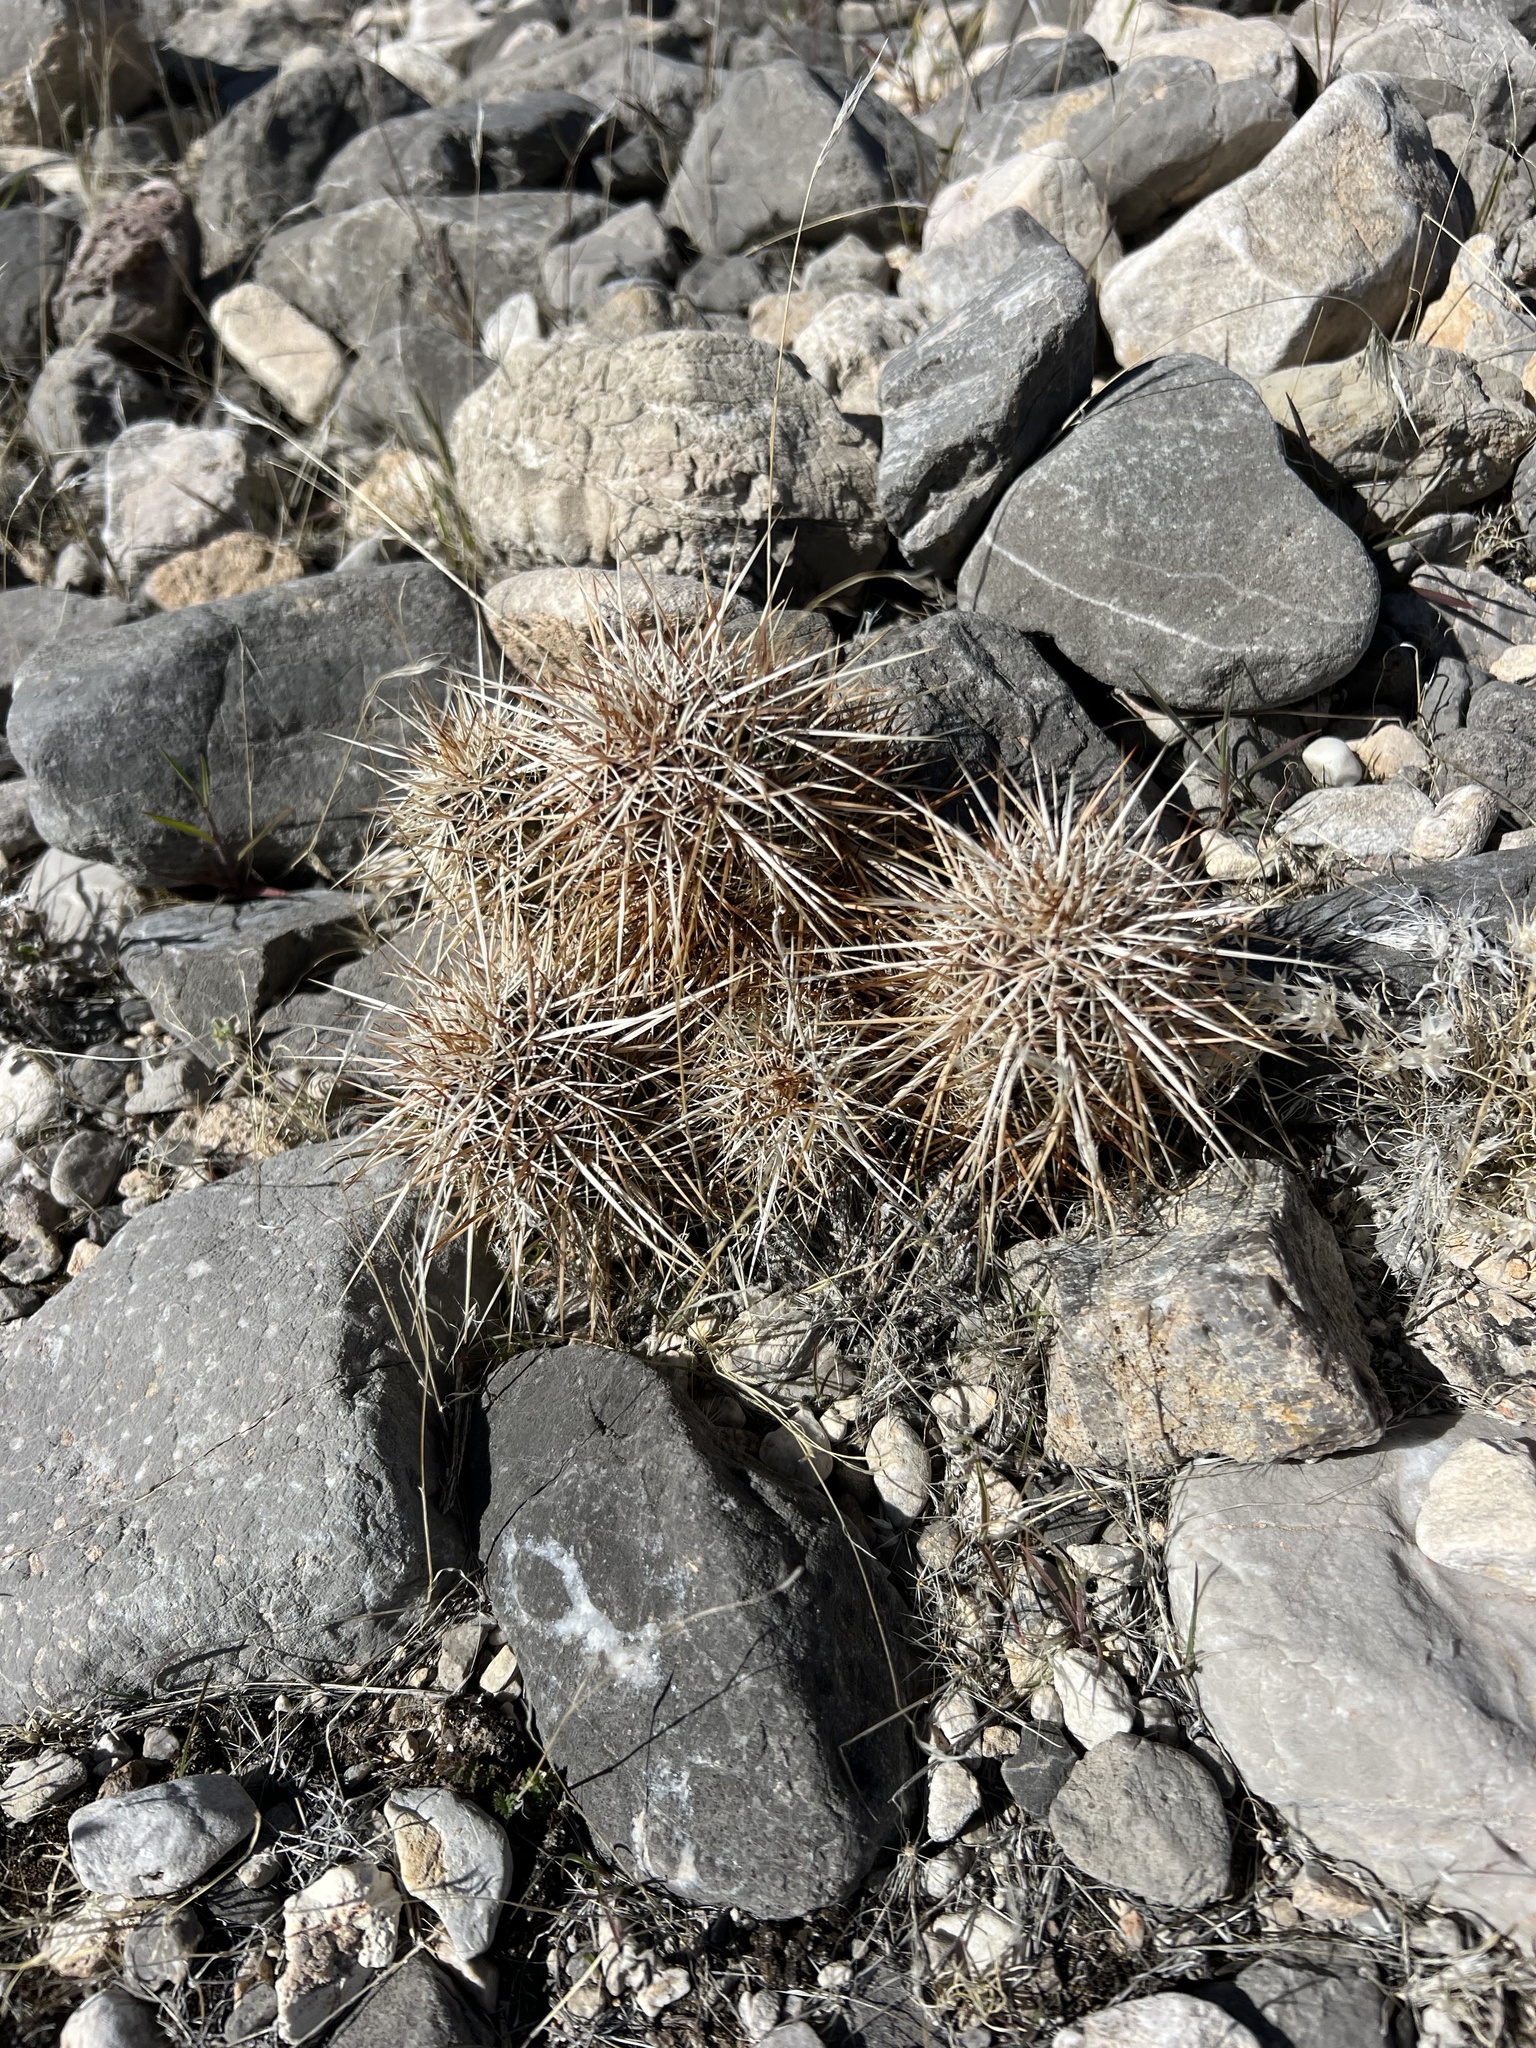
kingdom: Plantae
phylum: Tracheophyta
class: Magnoliopsida
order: Caryophyllales
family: Cactaceae
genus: Echinocereus
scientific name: Echinocereus engelmannii
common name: Engelmann's hedgehog cactus
